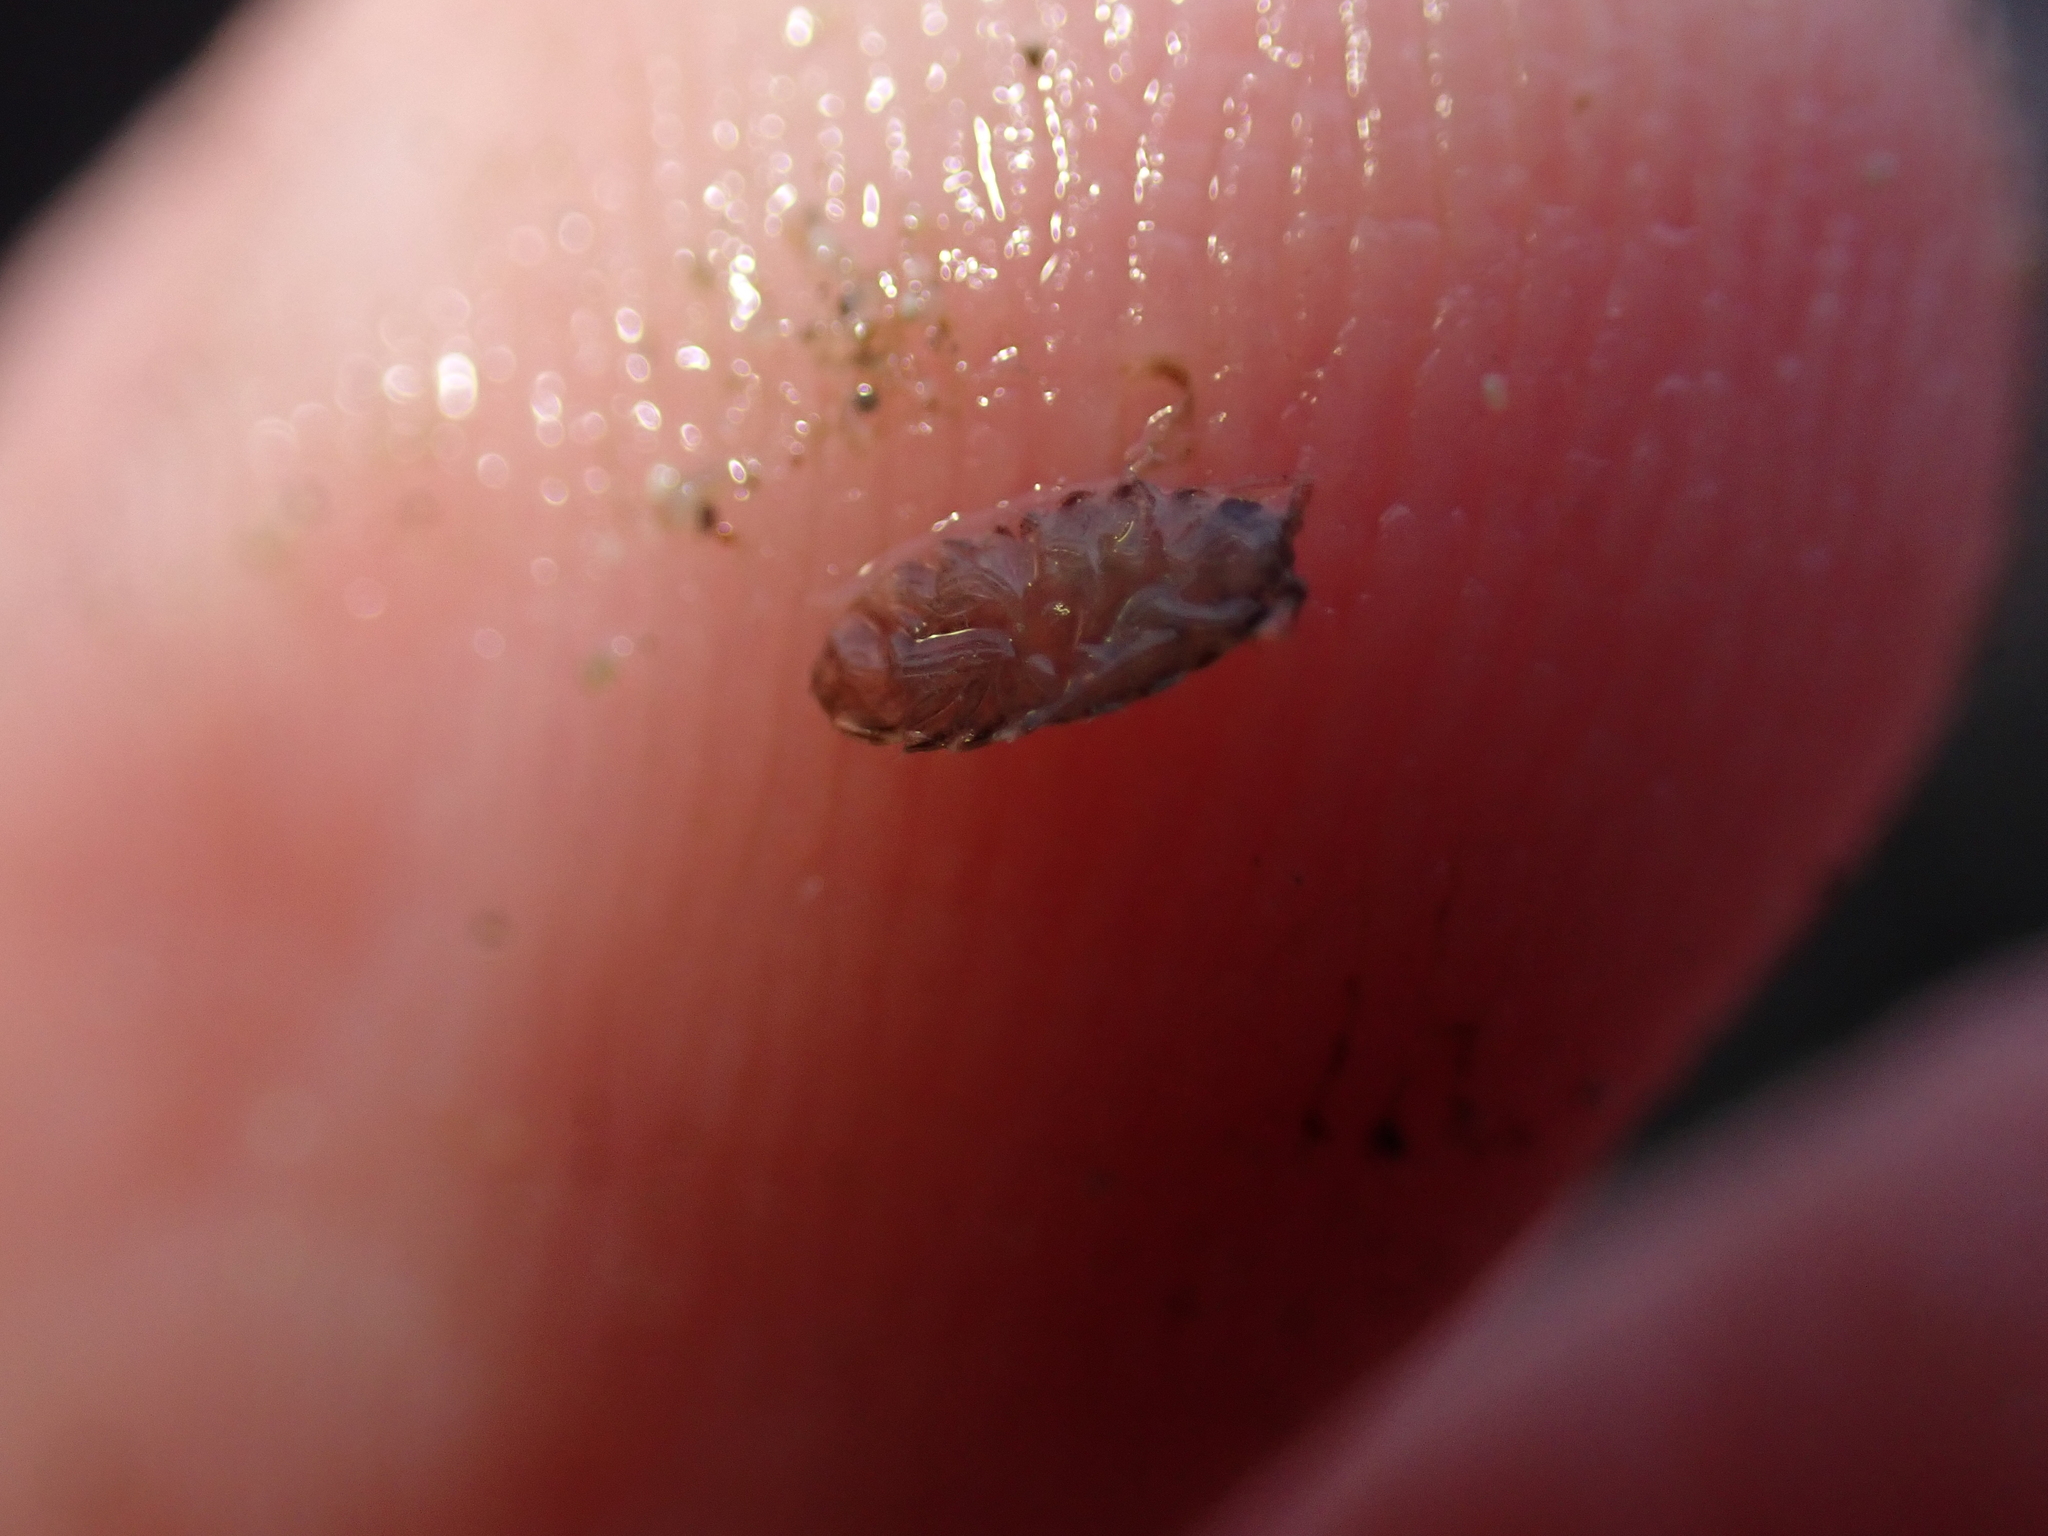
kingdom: Animalia
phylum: Arthropoda
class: Malacostraca
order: Isopoda
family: Janiridae
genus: Jaera
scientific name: Jaera
